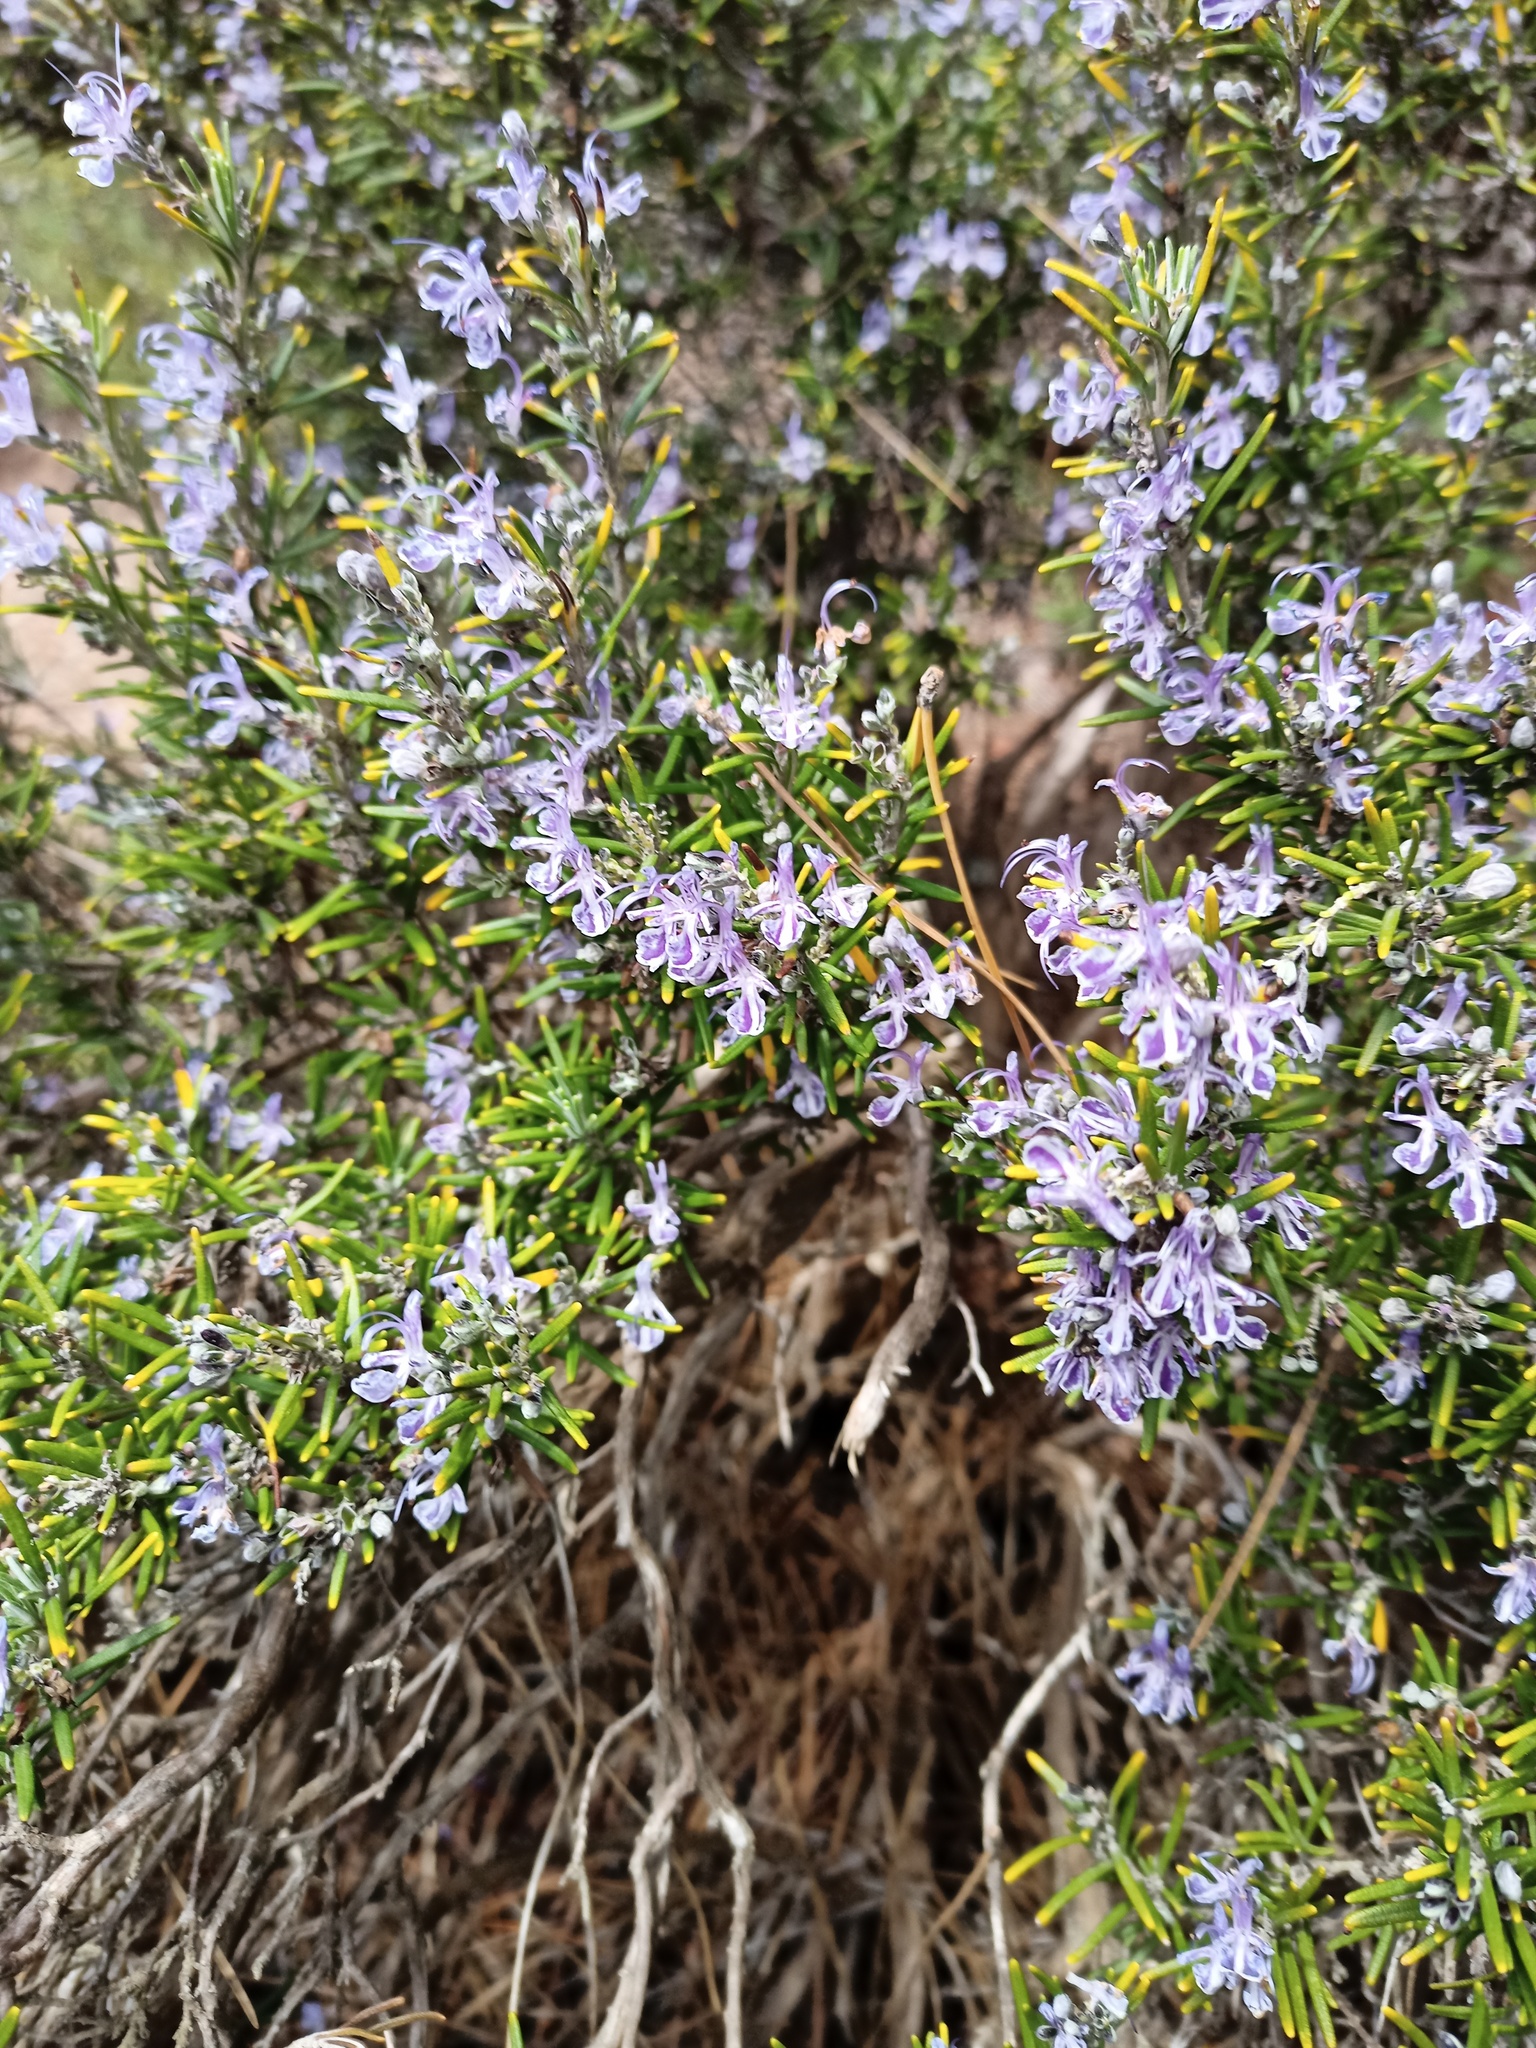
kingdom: Plantae
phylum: Tracheophyta
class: Magnoliopsida
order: Lamiales
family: Lamiaceae
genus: Salvia
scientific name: Salvia rosmarinus
